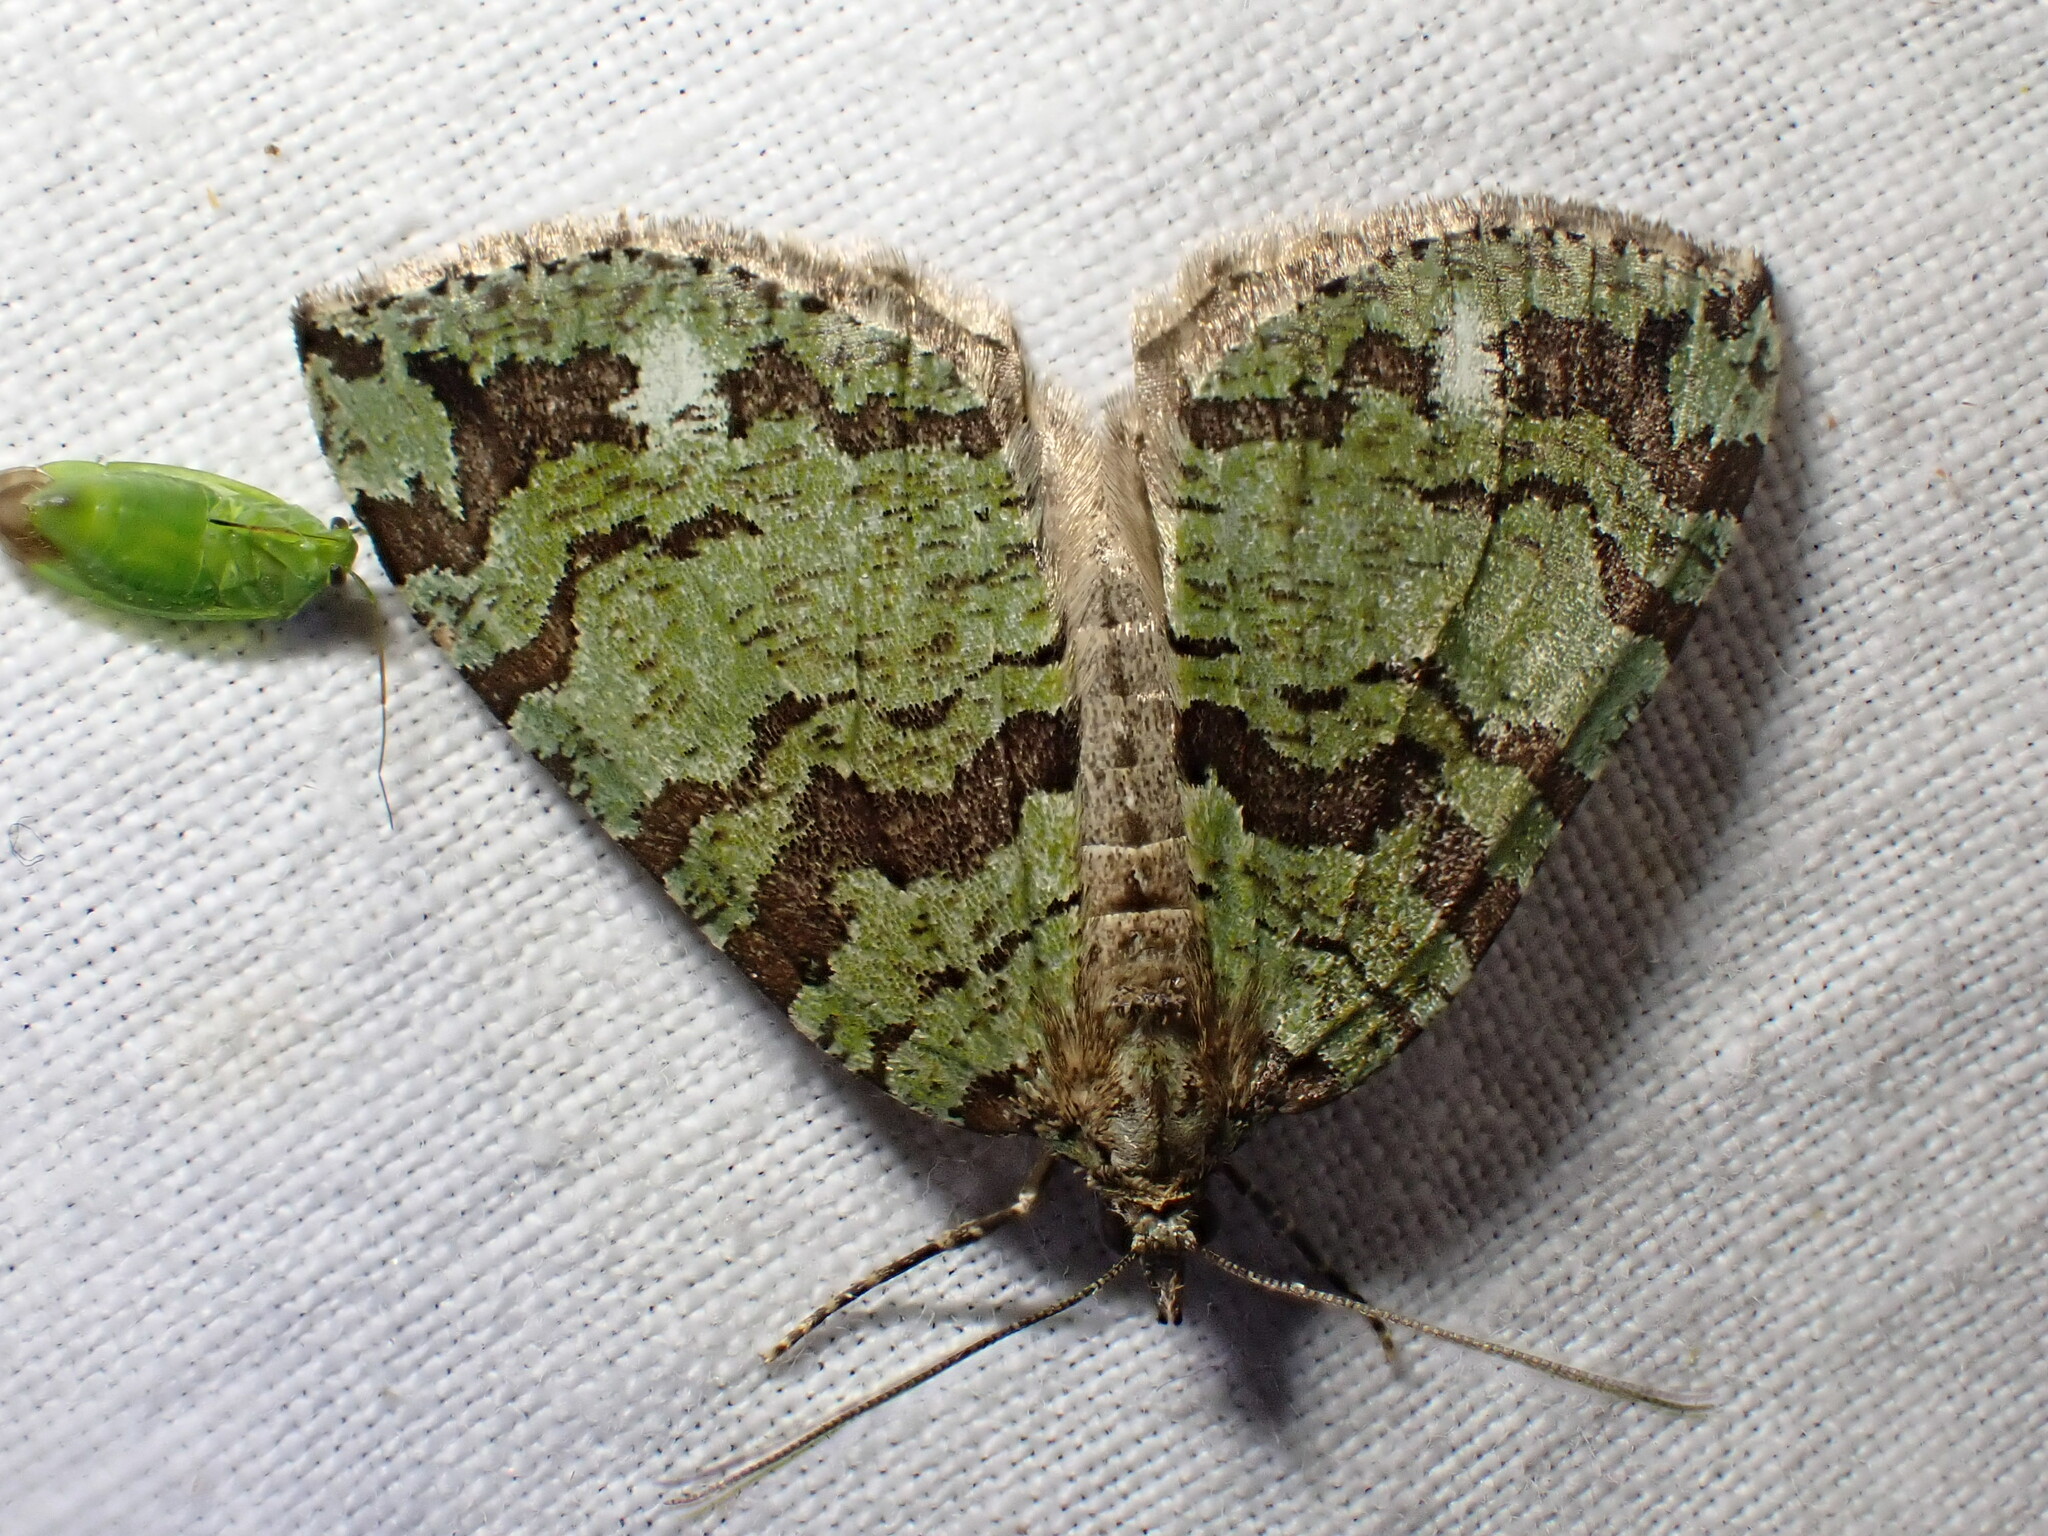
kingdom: Animalia
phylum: Arthropoda
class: Insecta
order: Lepidoptera
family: Geometridae
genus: Hydriomena
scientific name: Hydriomena furcata
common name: July highflyer
